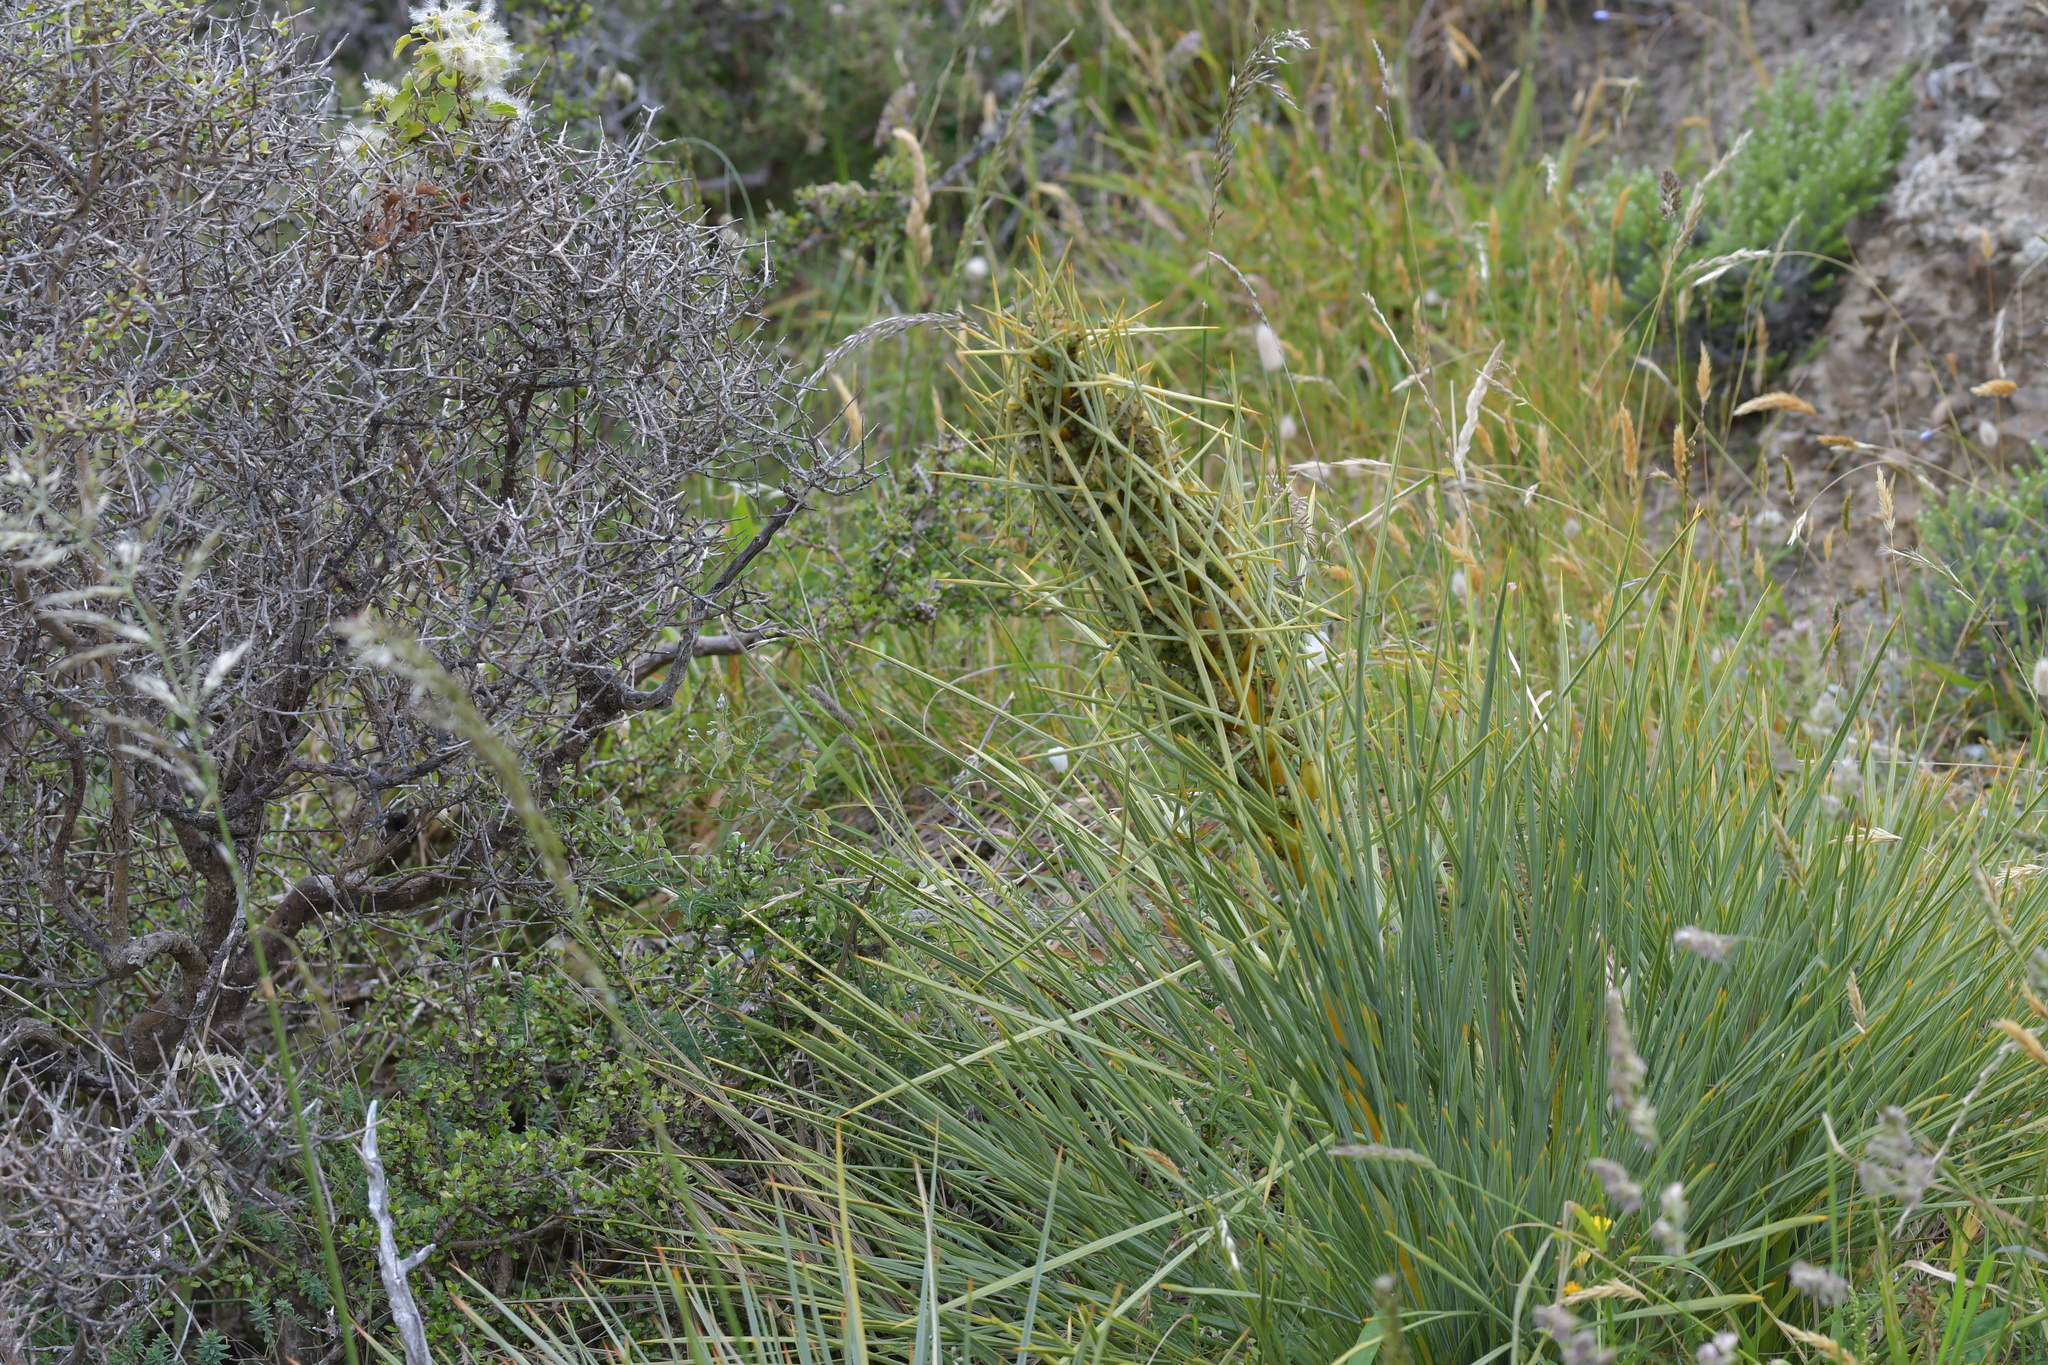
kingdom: Plantae
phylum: Tracheophyta
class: Magnoliopsida
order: Apiales
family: Apiaceae
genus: Aciphylla
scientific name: Aciphylla squarrosa
